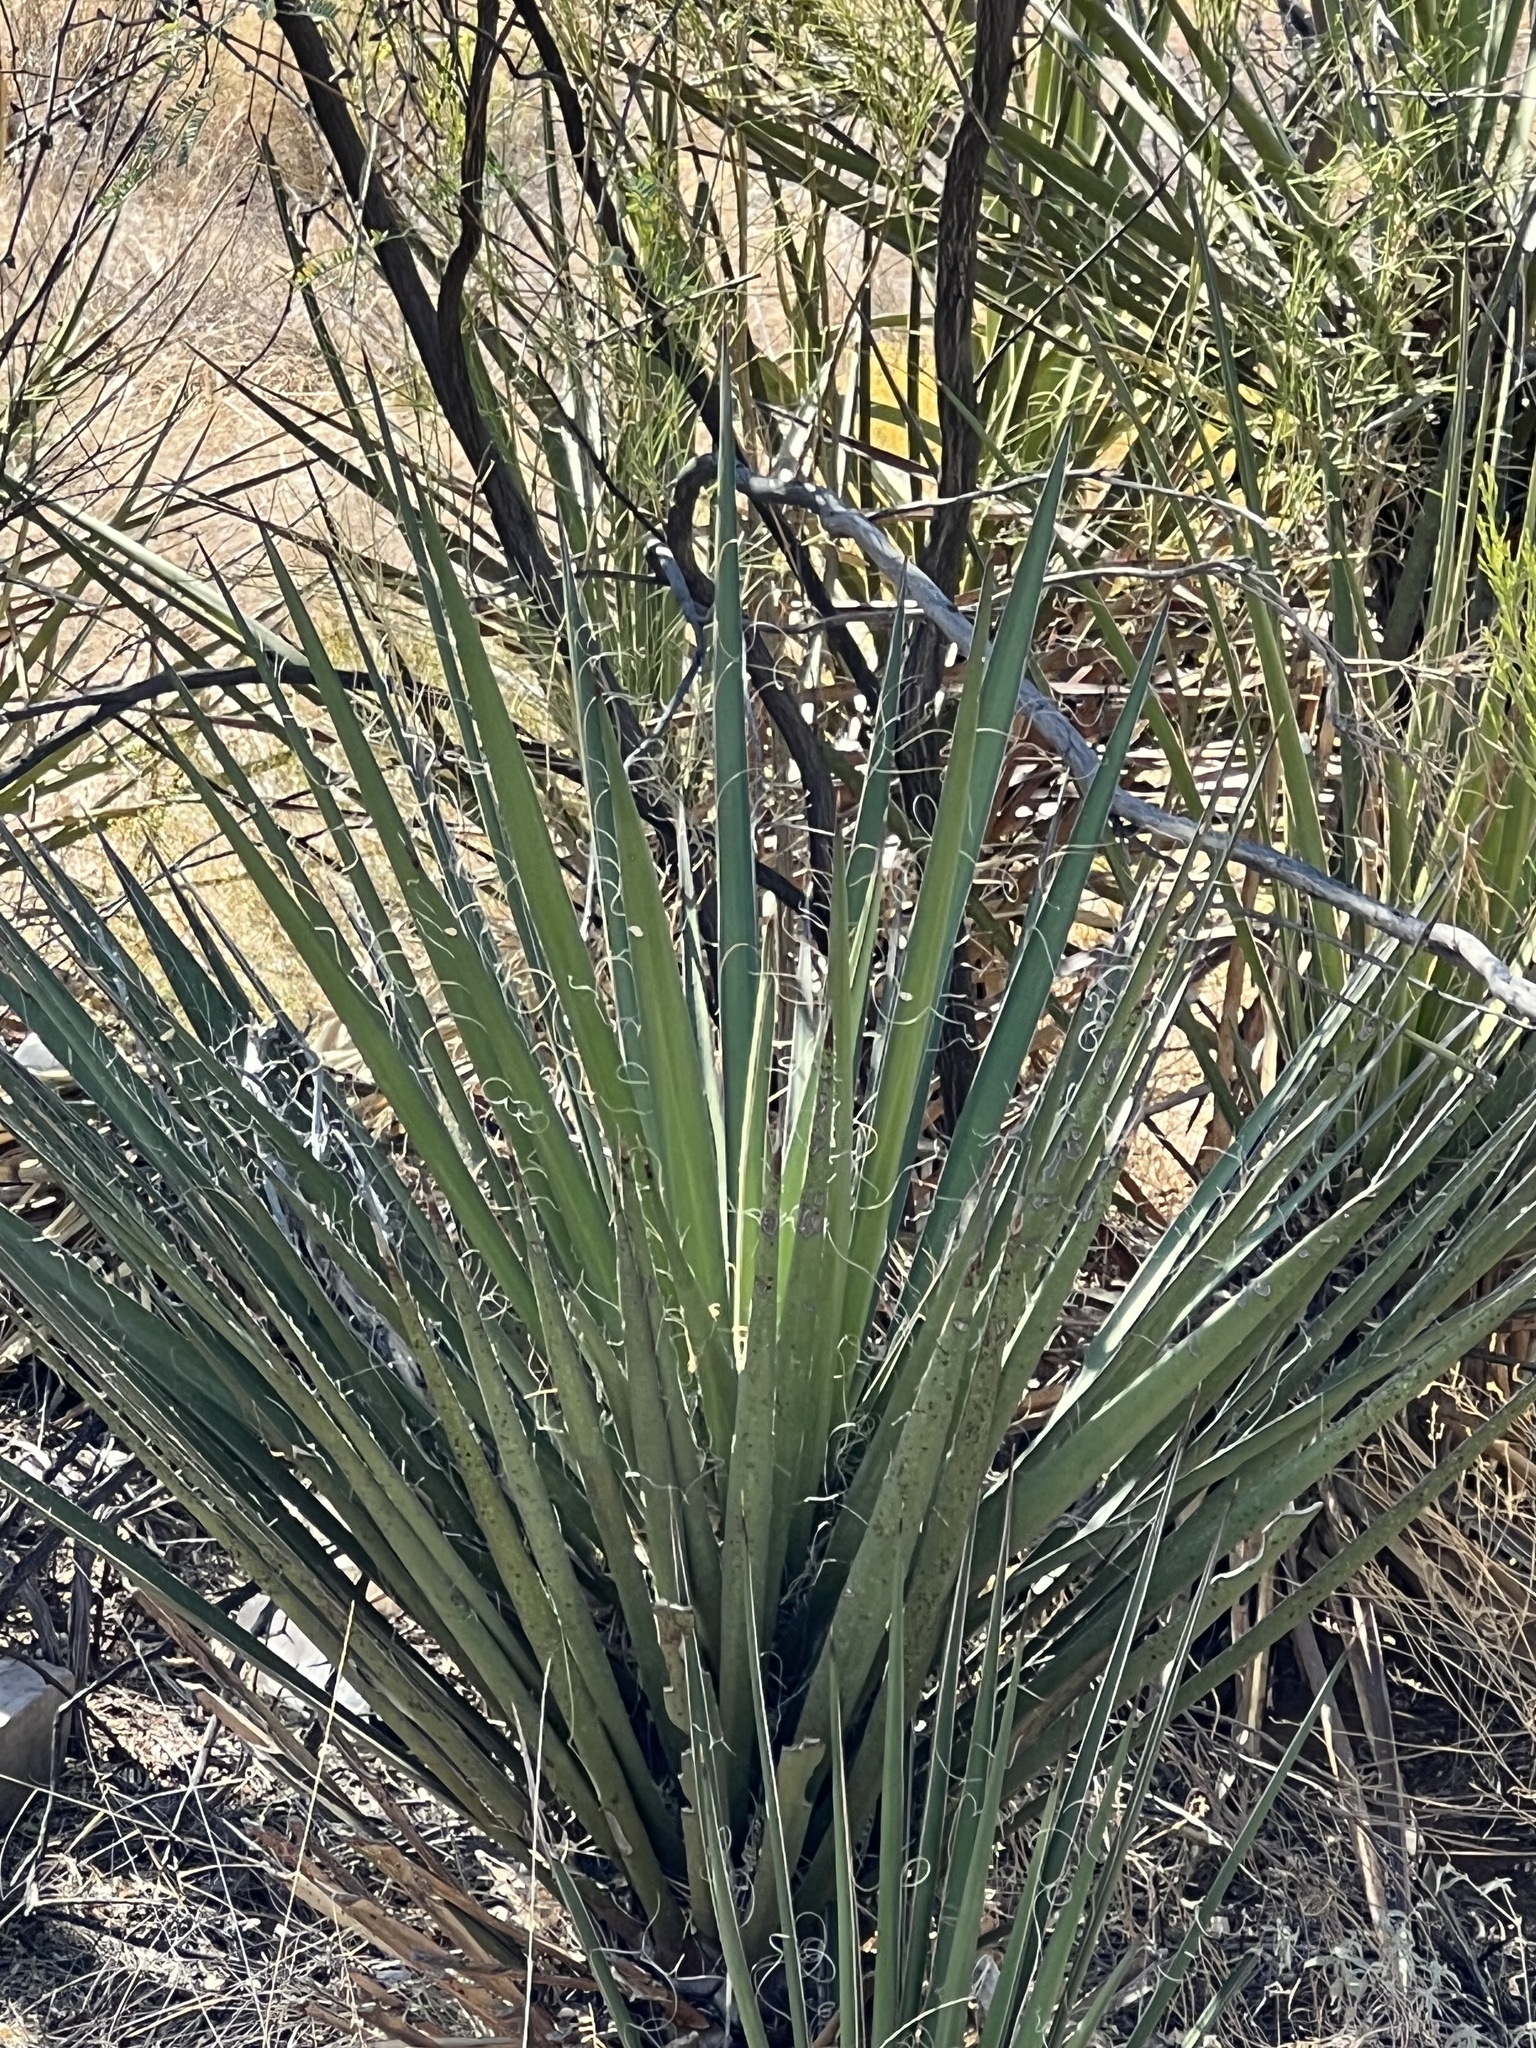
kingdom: Plantae
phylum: Tracheophyta
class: Liliopsida
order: Asparagales
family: Asparagaceae
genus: Yucca
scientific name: Yucca baccata
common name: Banana yucca
